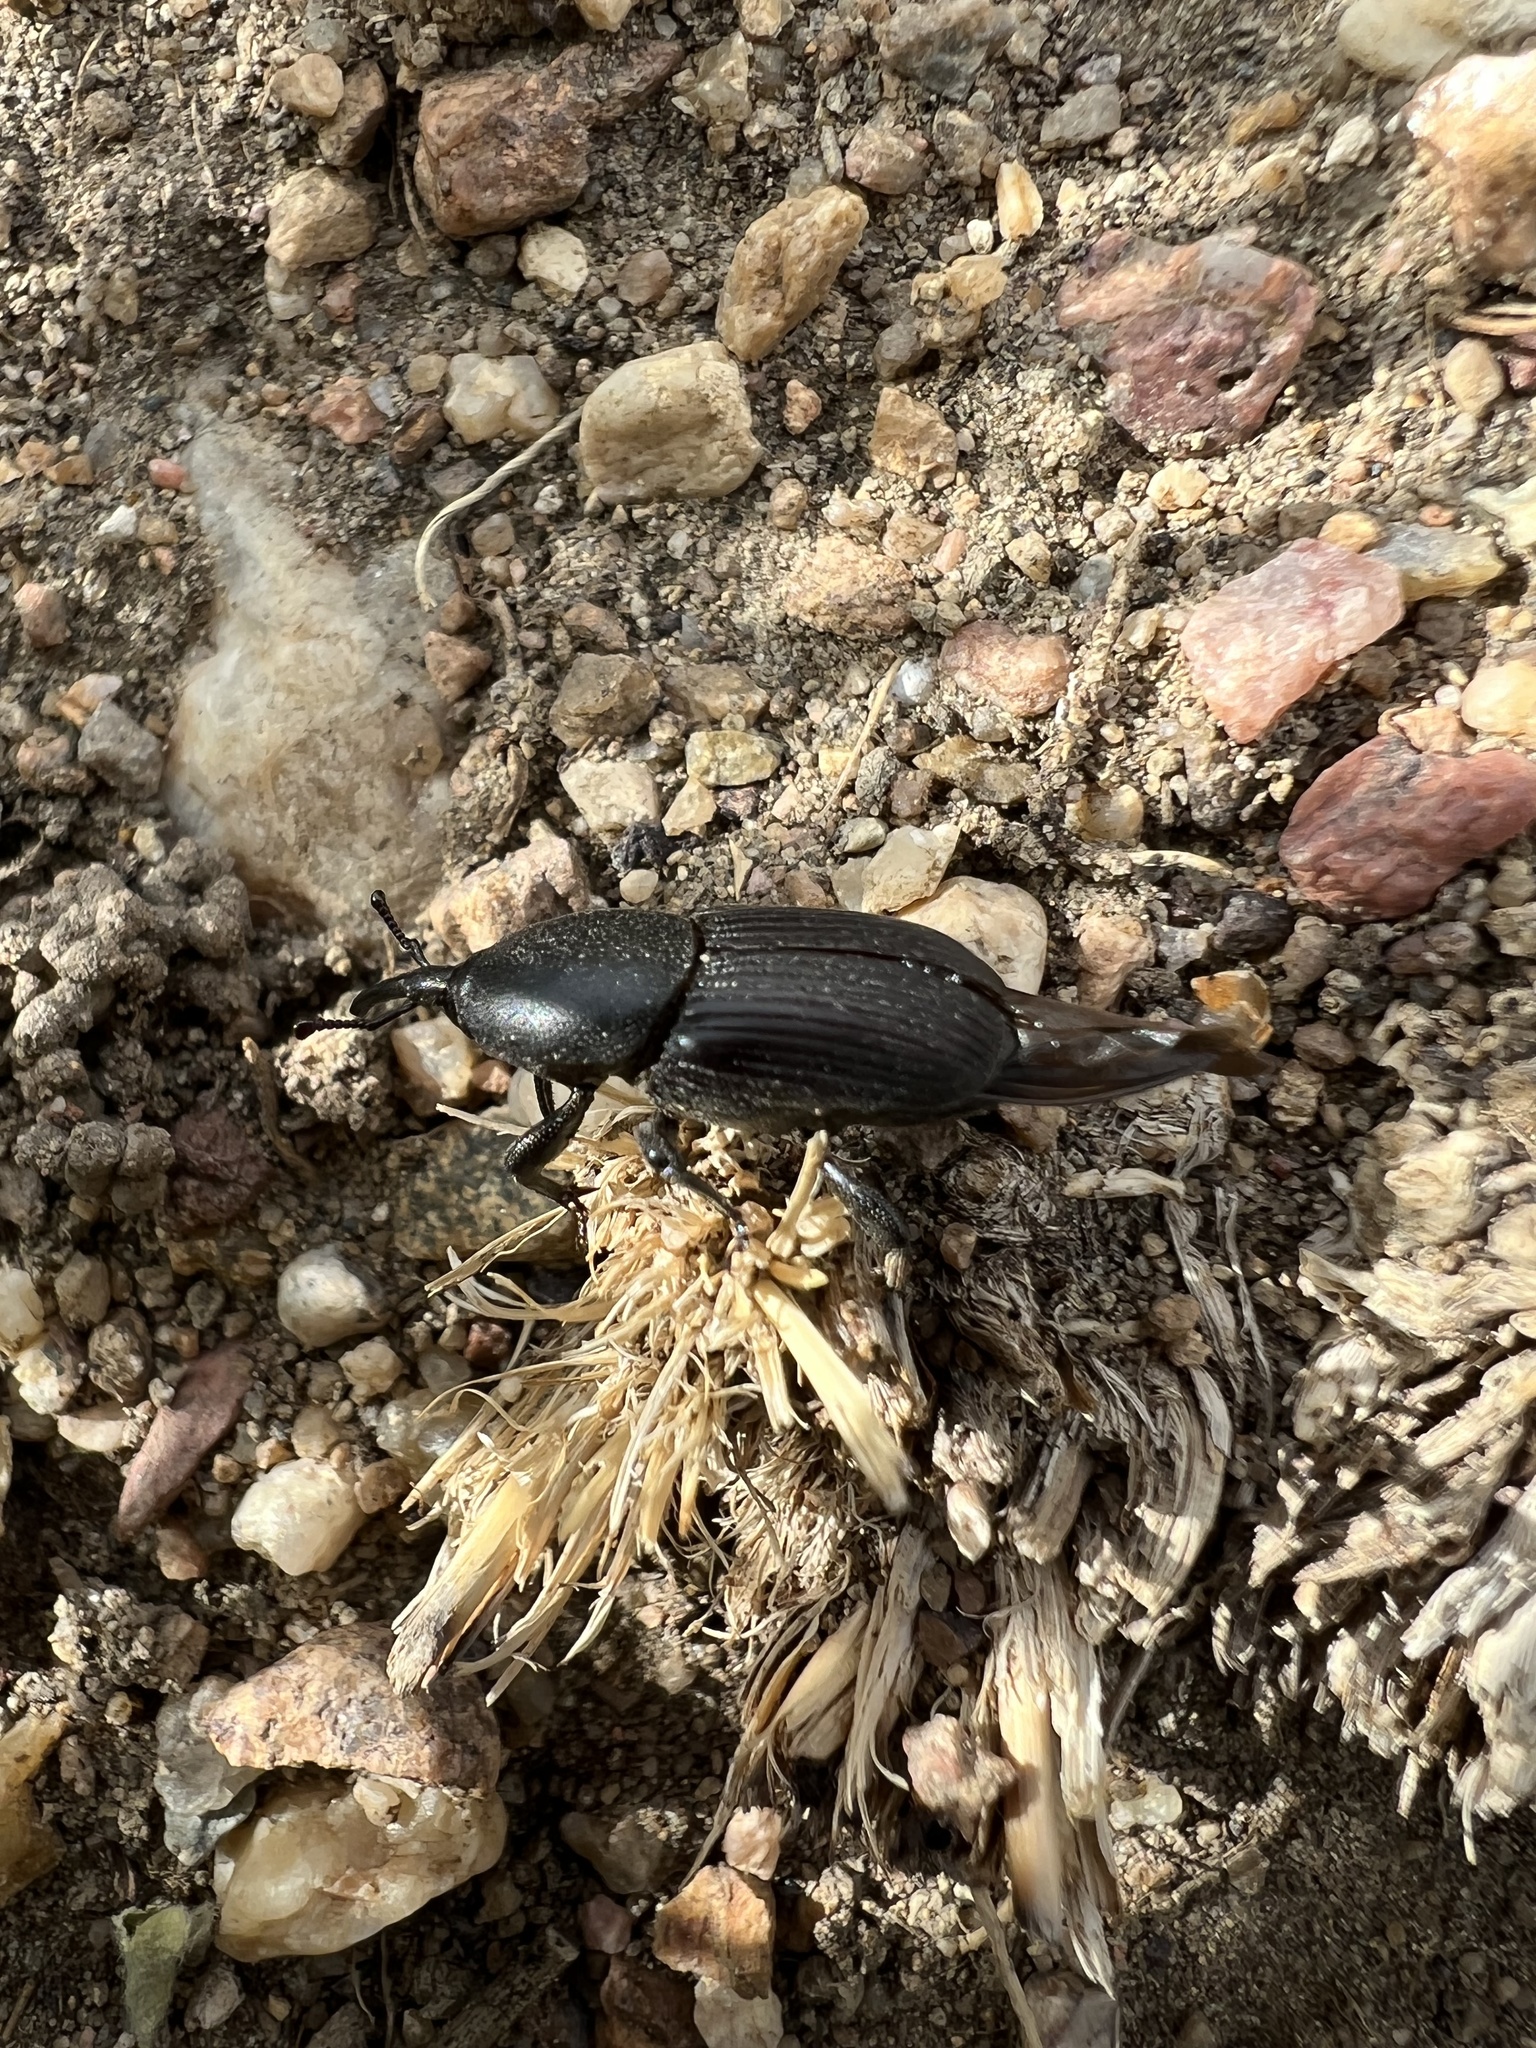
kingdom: Animalia
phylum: Arthropoda
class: Insecta
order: Coleoptera
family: Dryophthoridae
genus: Scyphophorus
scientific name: Scyphophorus acupunctatus
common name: Weevil
